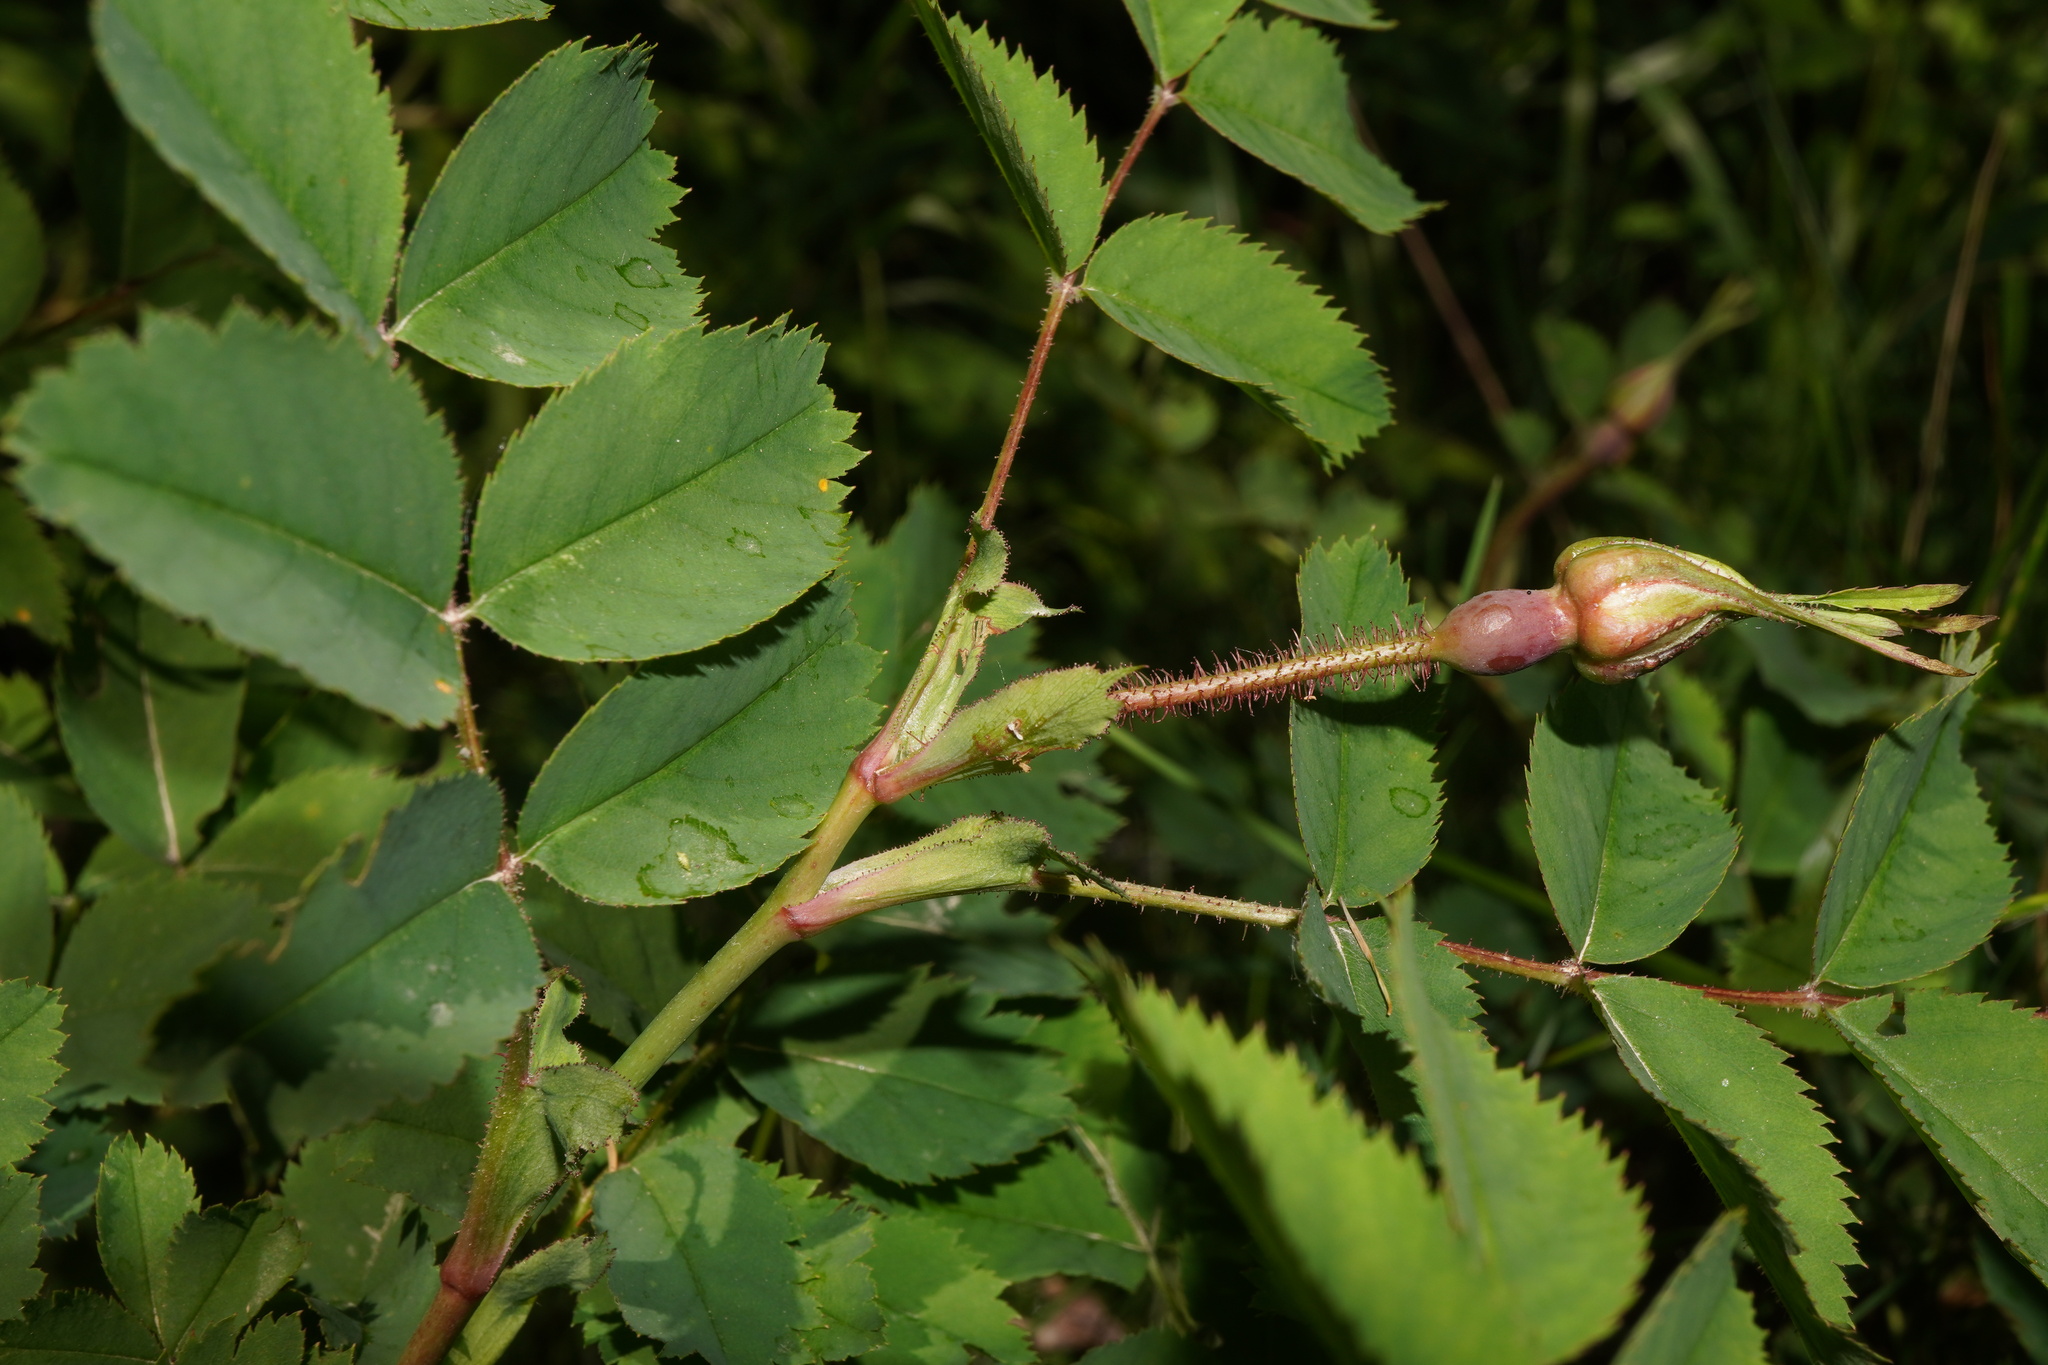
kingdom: Plantae
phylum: Tracheophyta
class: Magnoliopsida
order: Rosales
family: Rosaceae
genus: Rosa
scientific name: Rosa pendulina
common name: Alpine rose
